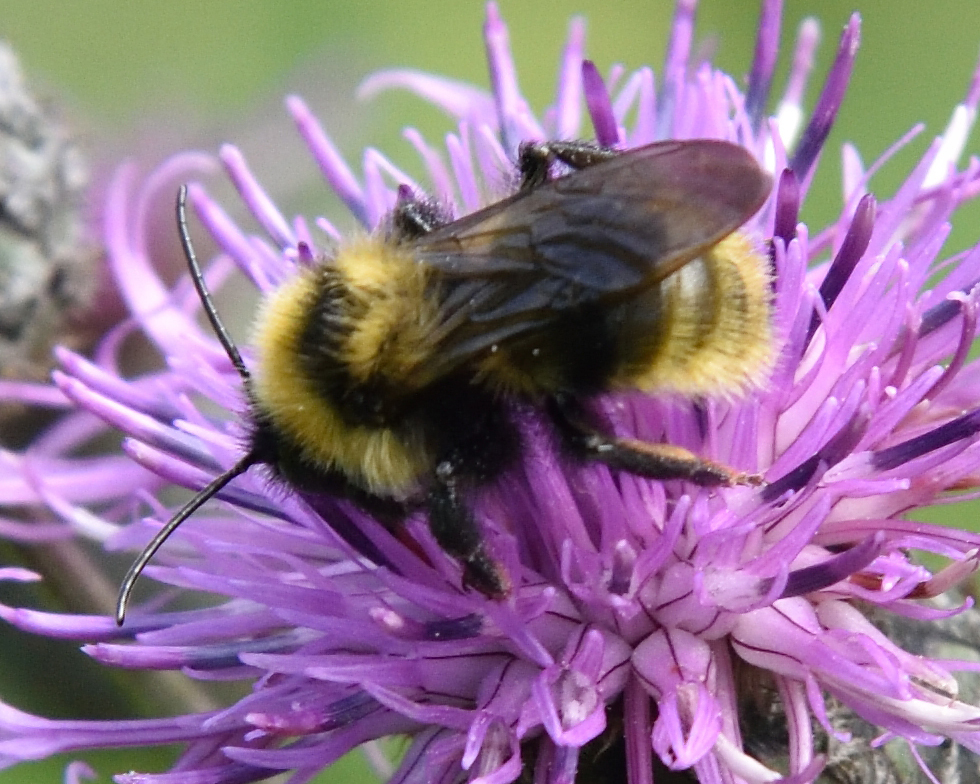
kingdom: Animalia
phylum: Arthropoda
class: Insecta
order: Hymenoptera
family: Apidae
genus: Bombus
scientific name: Bombus campestris
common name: Field cuckoo-bee
